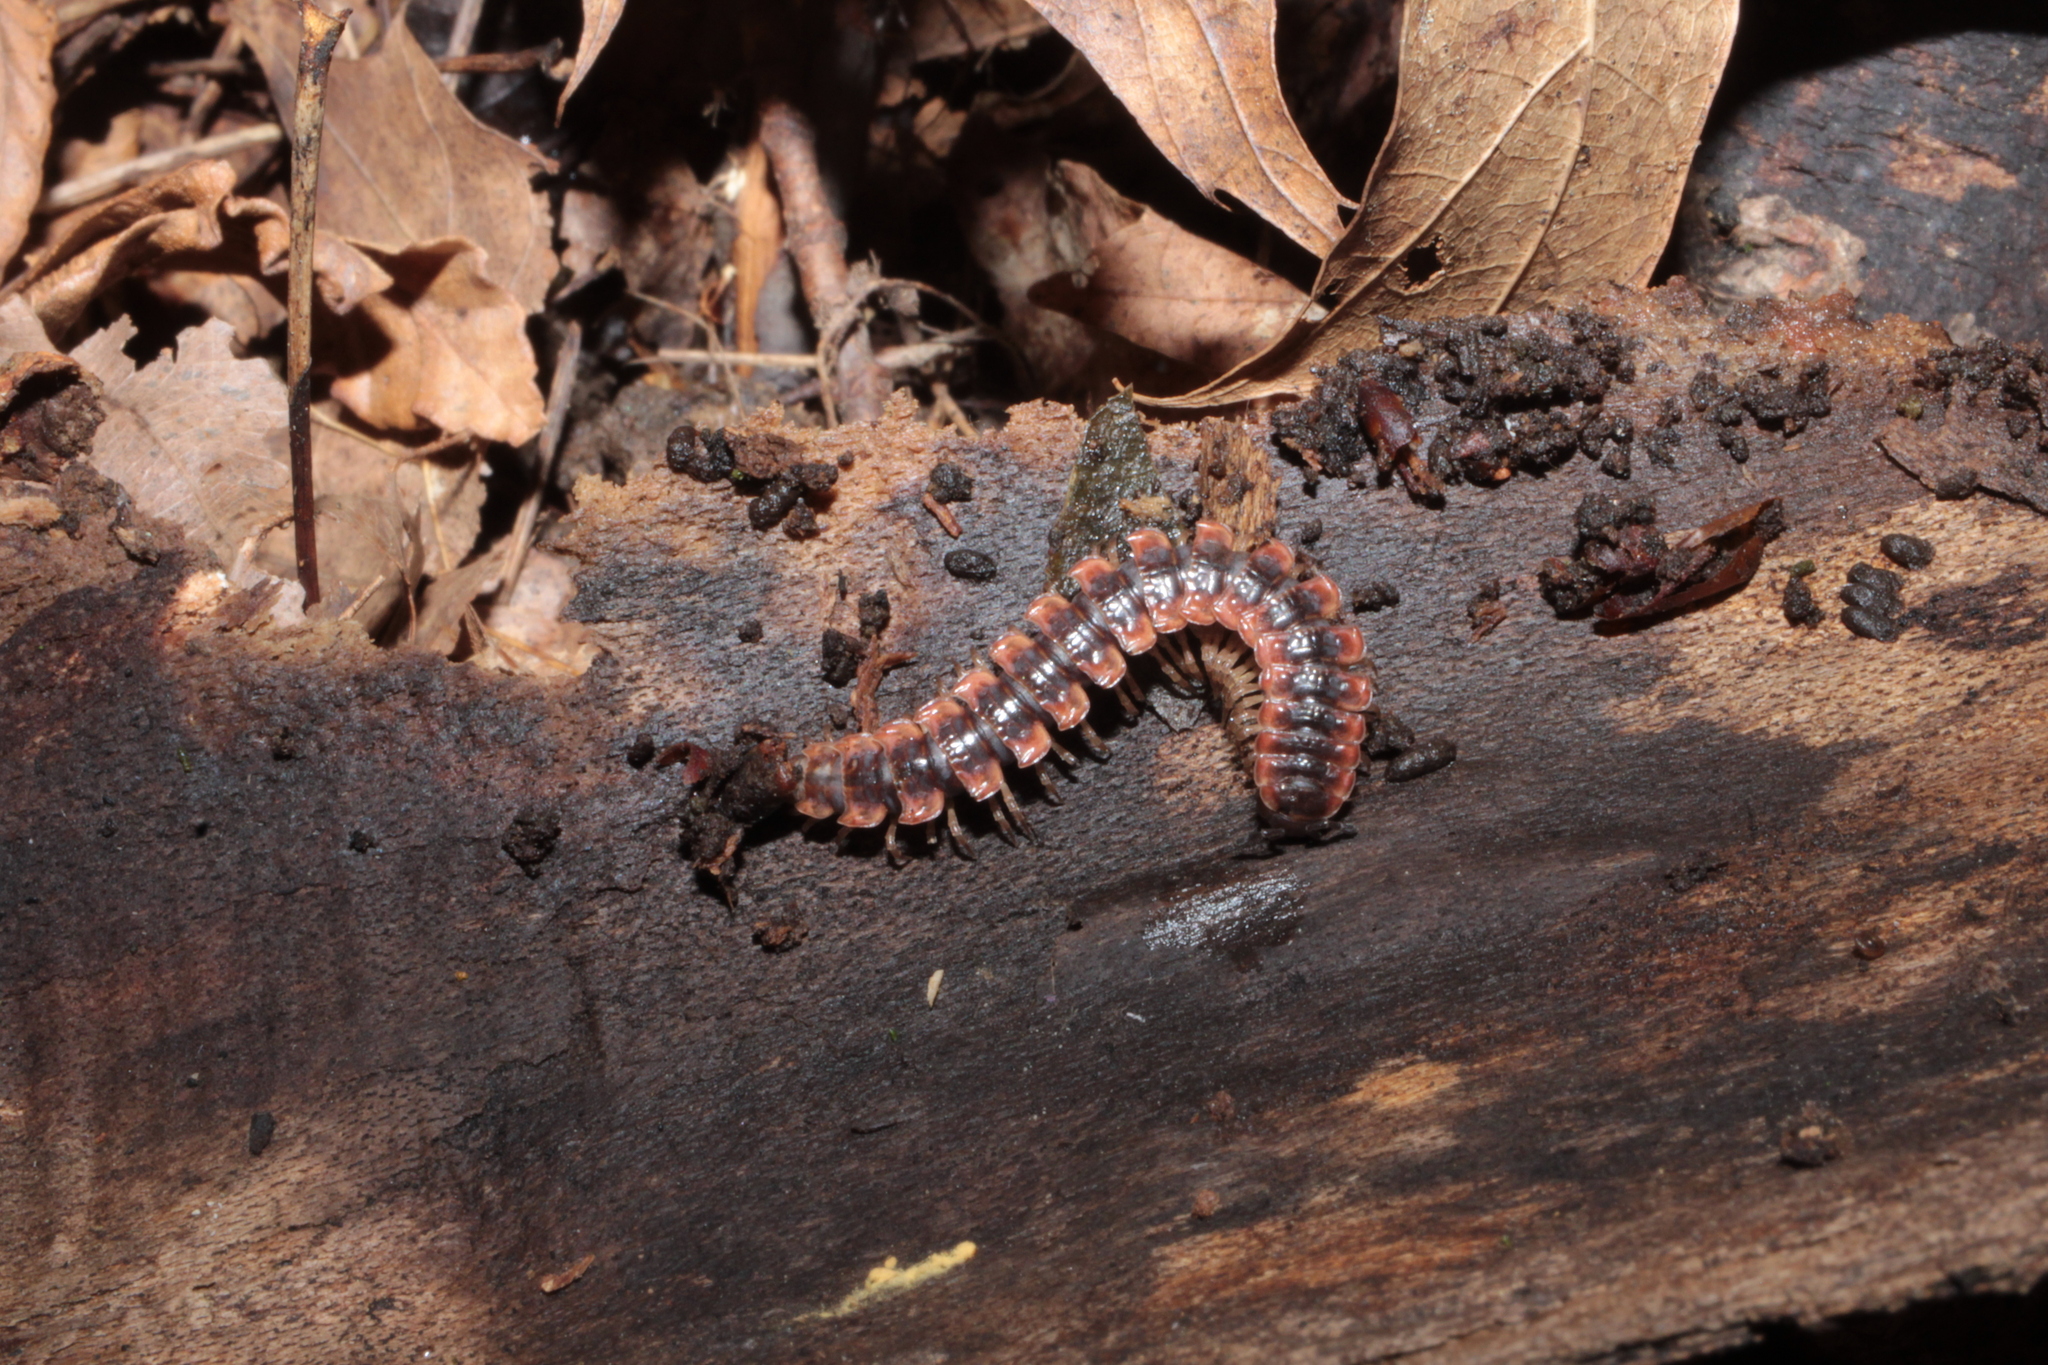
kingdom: Animalia
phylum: Arthropoda
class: Diplopoda
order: Polydesmida
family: Polydesmidae
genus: Pseudopolydesmus
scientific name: Pseudopolydesmus canadensis
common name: Canadian flat-back millipede
